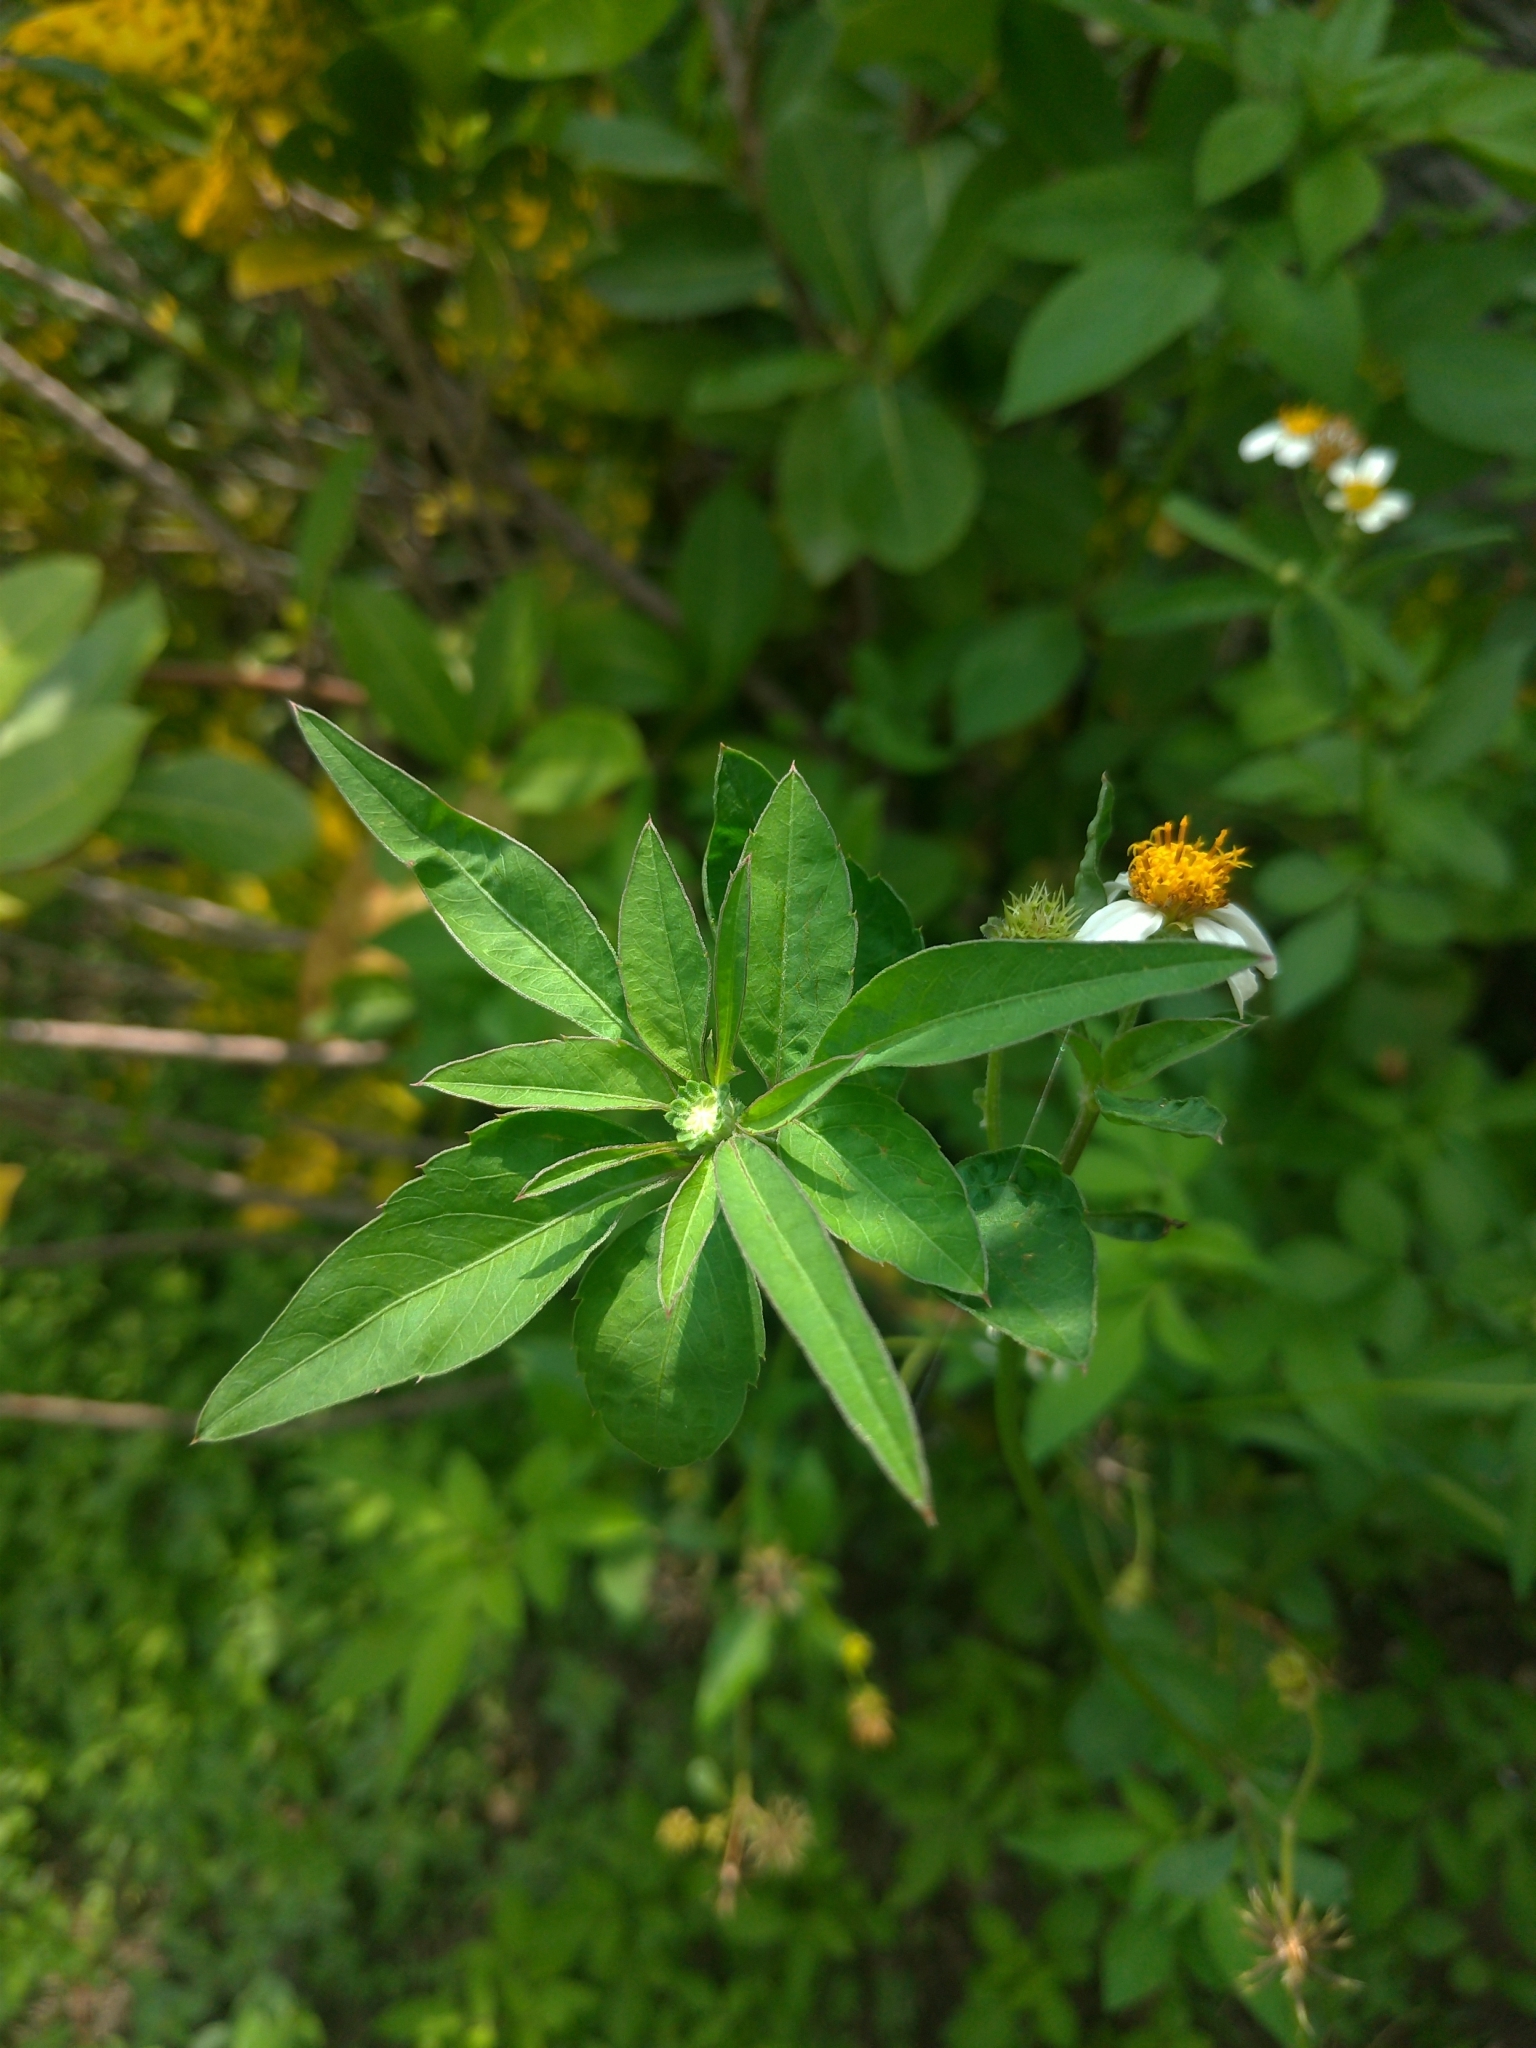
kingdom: Plantae
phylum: Tracheophyta
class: Magnoliopsida
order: Asterales
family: Asteraceae
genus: Bidens
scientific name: Bidens alba
